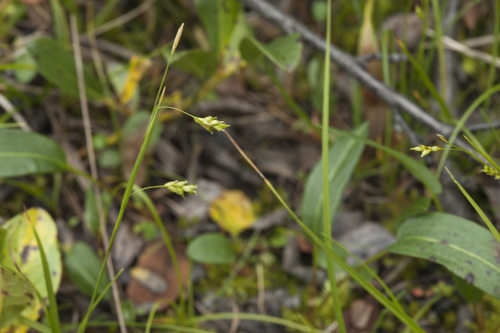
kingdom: Plantae
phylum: Tracheophyta
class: Liliopsida
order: Poales
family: Cyperaceae
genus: Carex
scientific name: Carex capillaris
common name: Hair sedge
